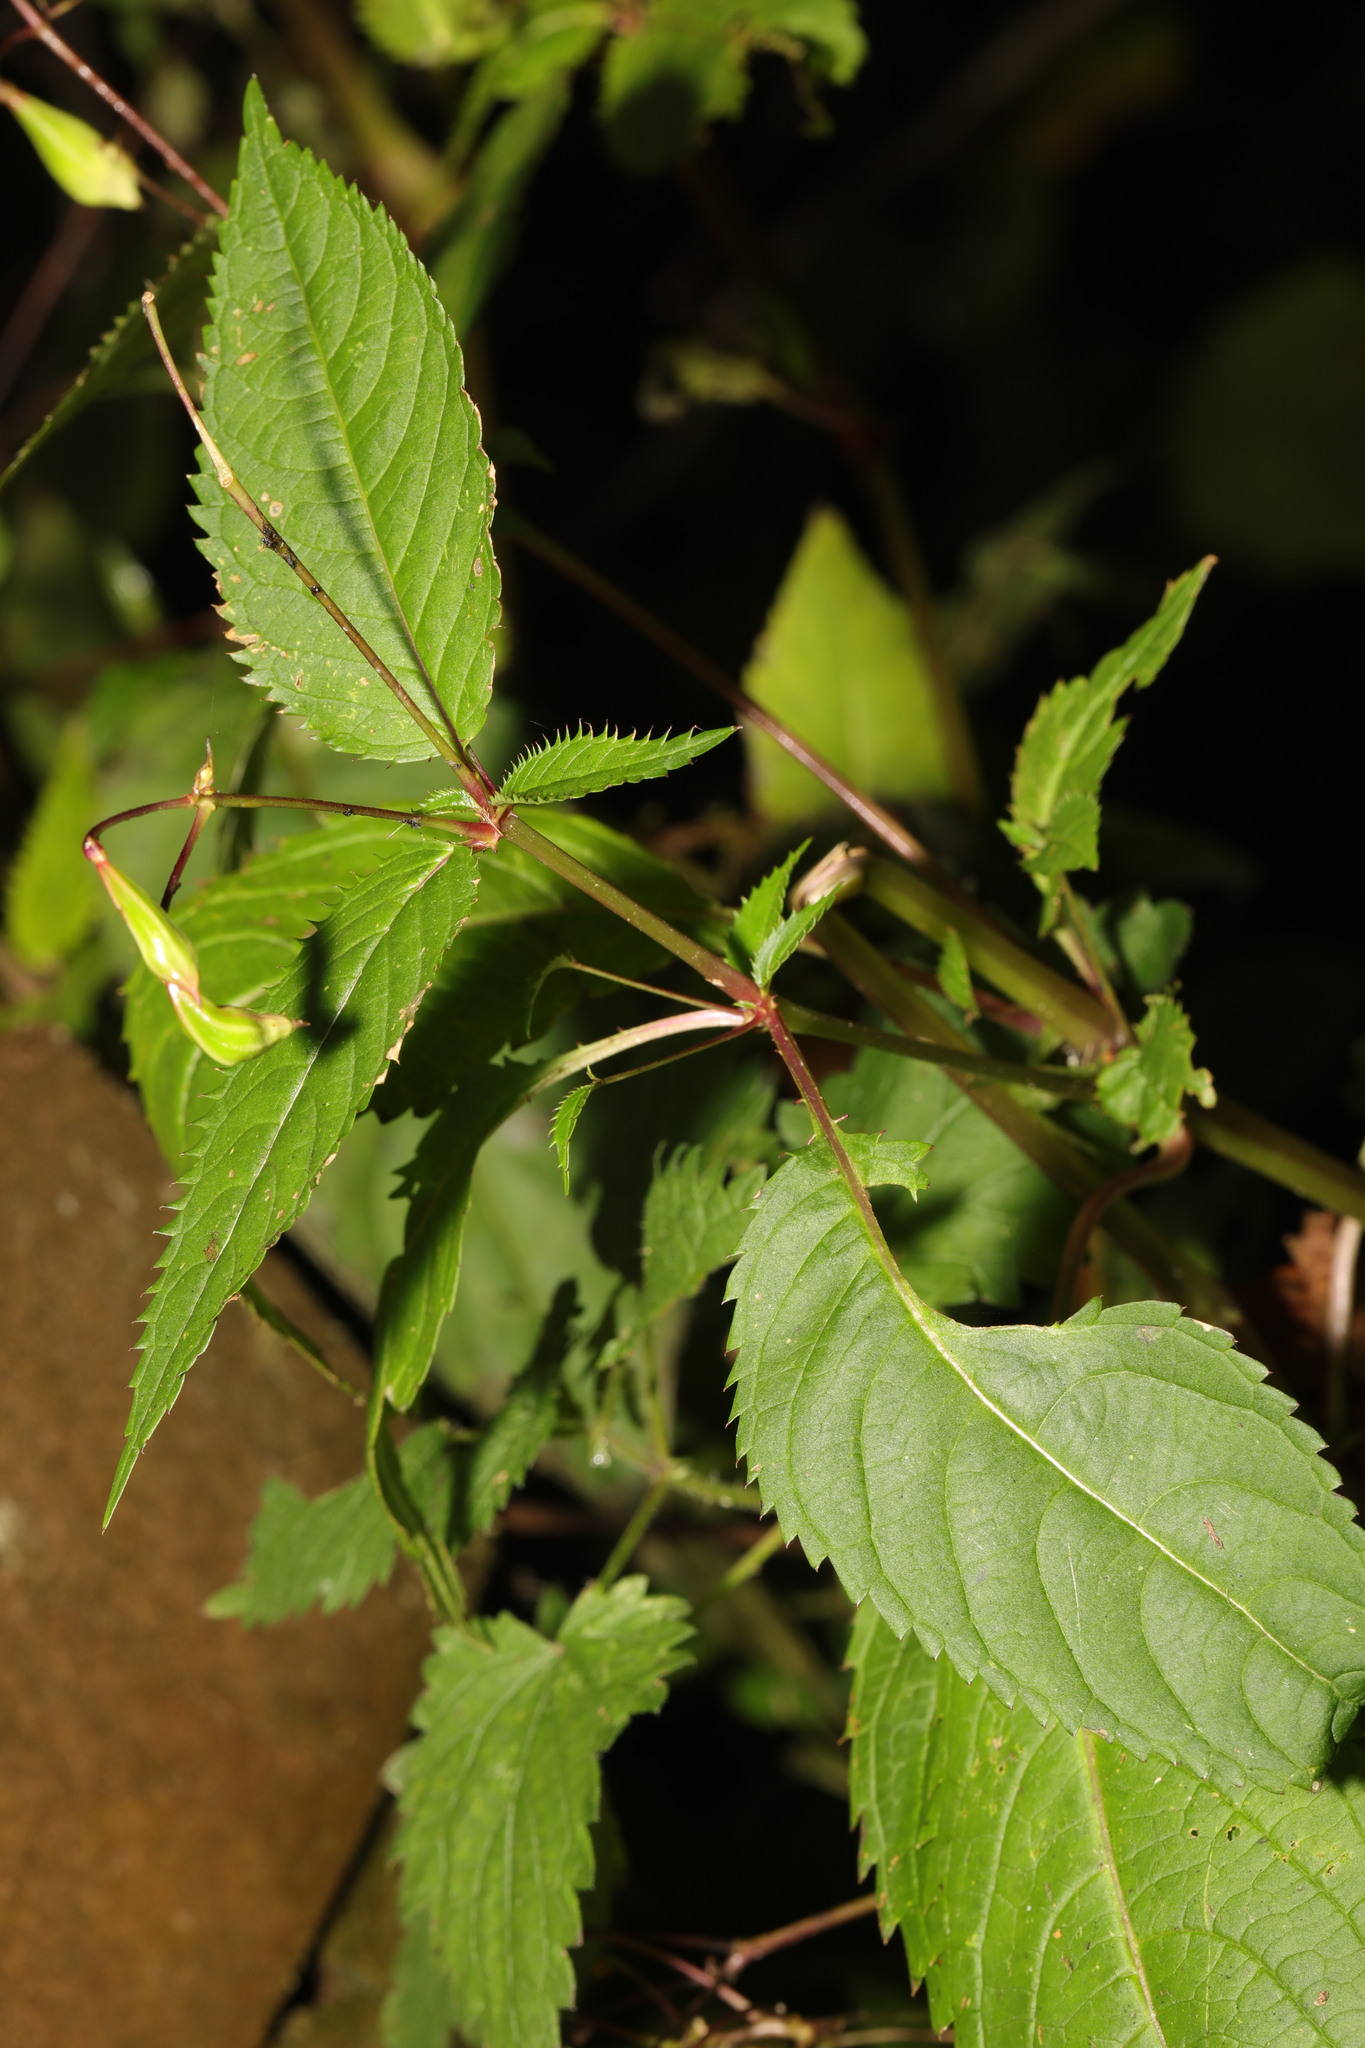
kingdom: Plantae
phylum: Tracheophyta
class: Magnoliopsida
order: Ericales
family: Balsaminaceae
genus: Impatiens
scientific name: Impatiens glandulifera
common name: Himalayan balsam
